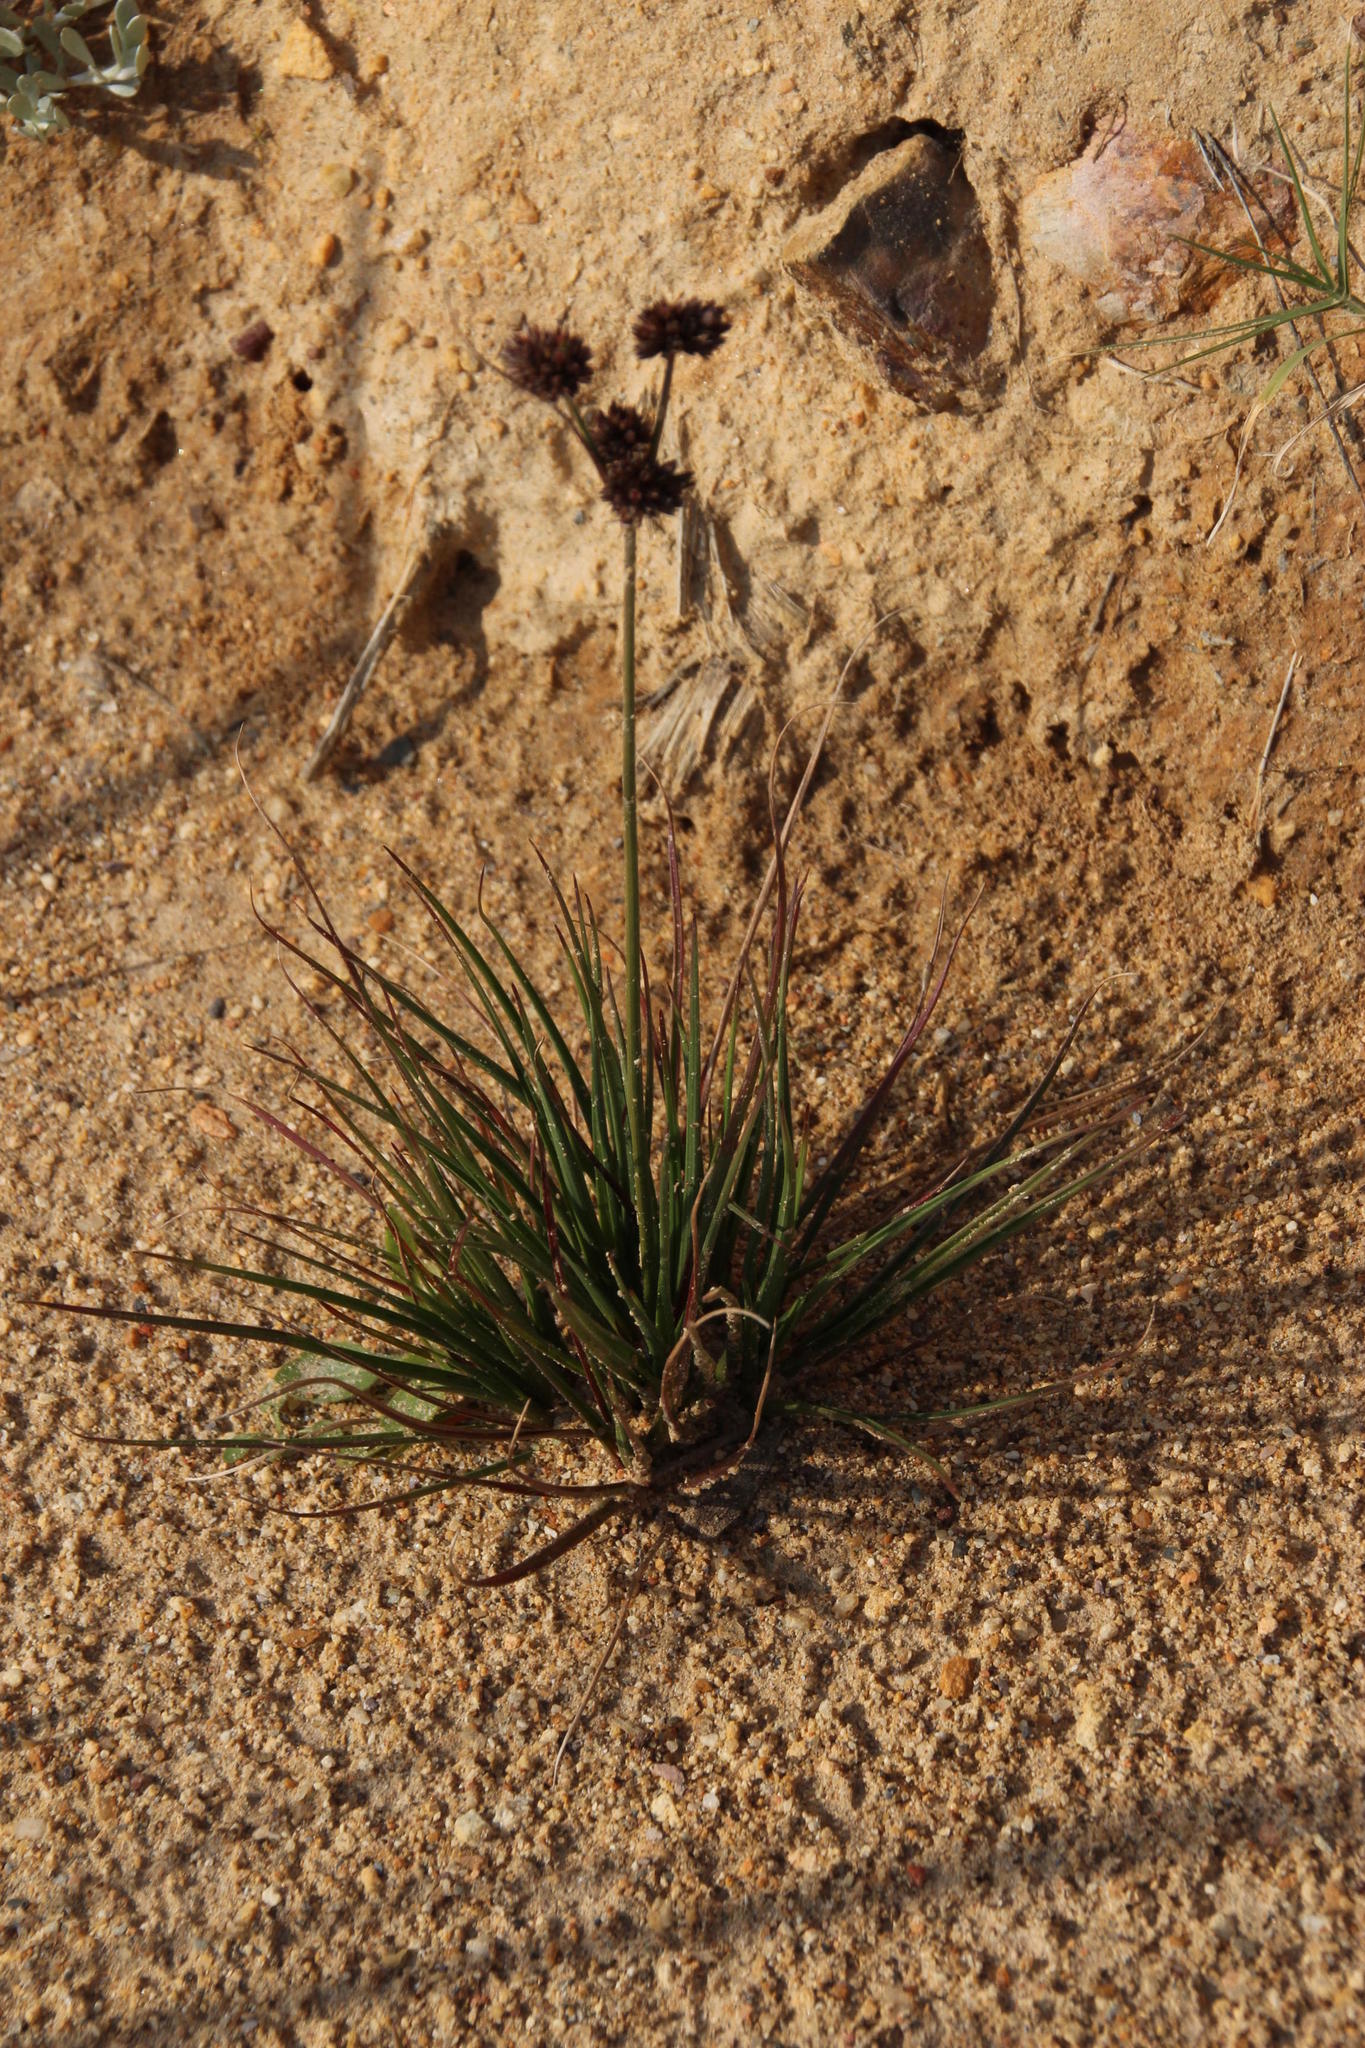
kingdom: Plantae
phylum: Tracheophyta
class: Liliopsida
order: Poales
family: Juncaceae
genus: Juncus
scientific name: Juncus dregeanus
